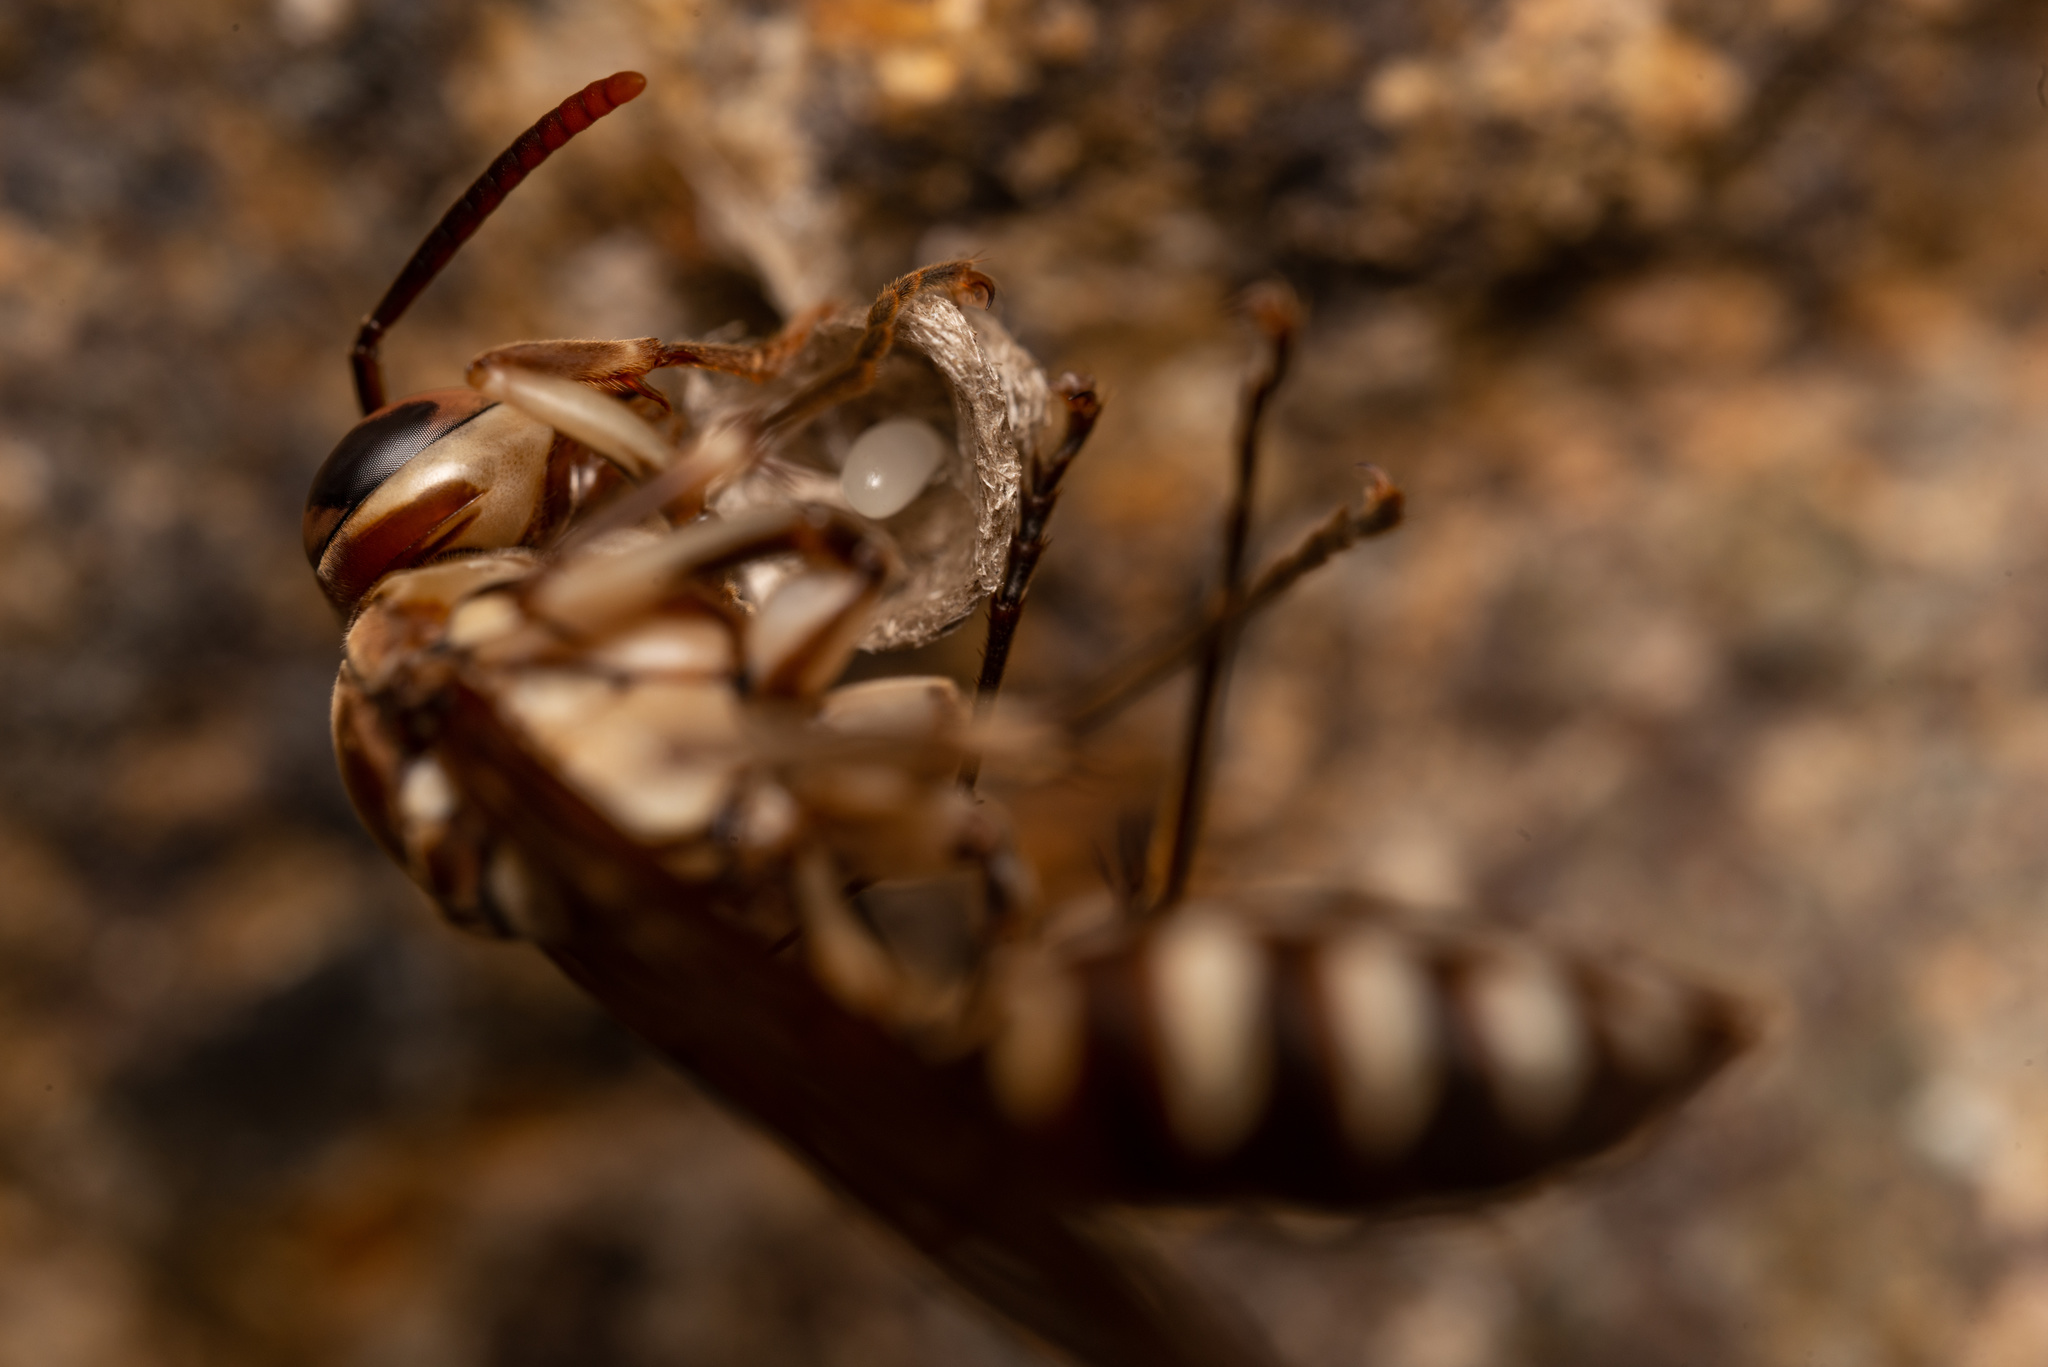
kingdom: Animalia
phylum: Arthropoda
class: Insecta
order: Hymenoptera
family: Vespidae
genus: Parapolybia
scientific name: Parapolybia nodosa
